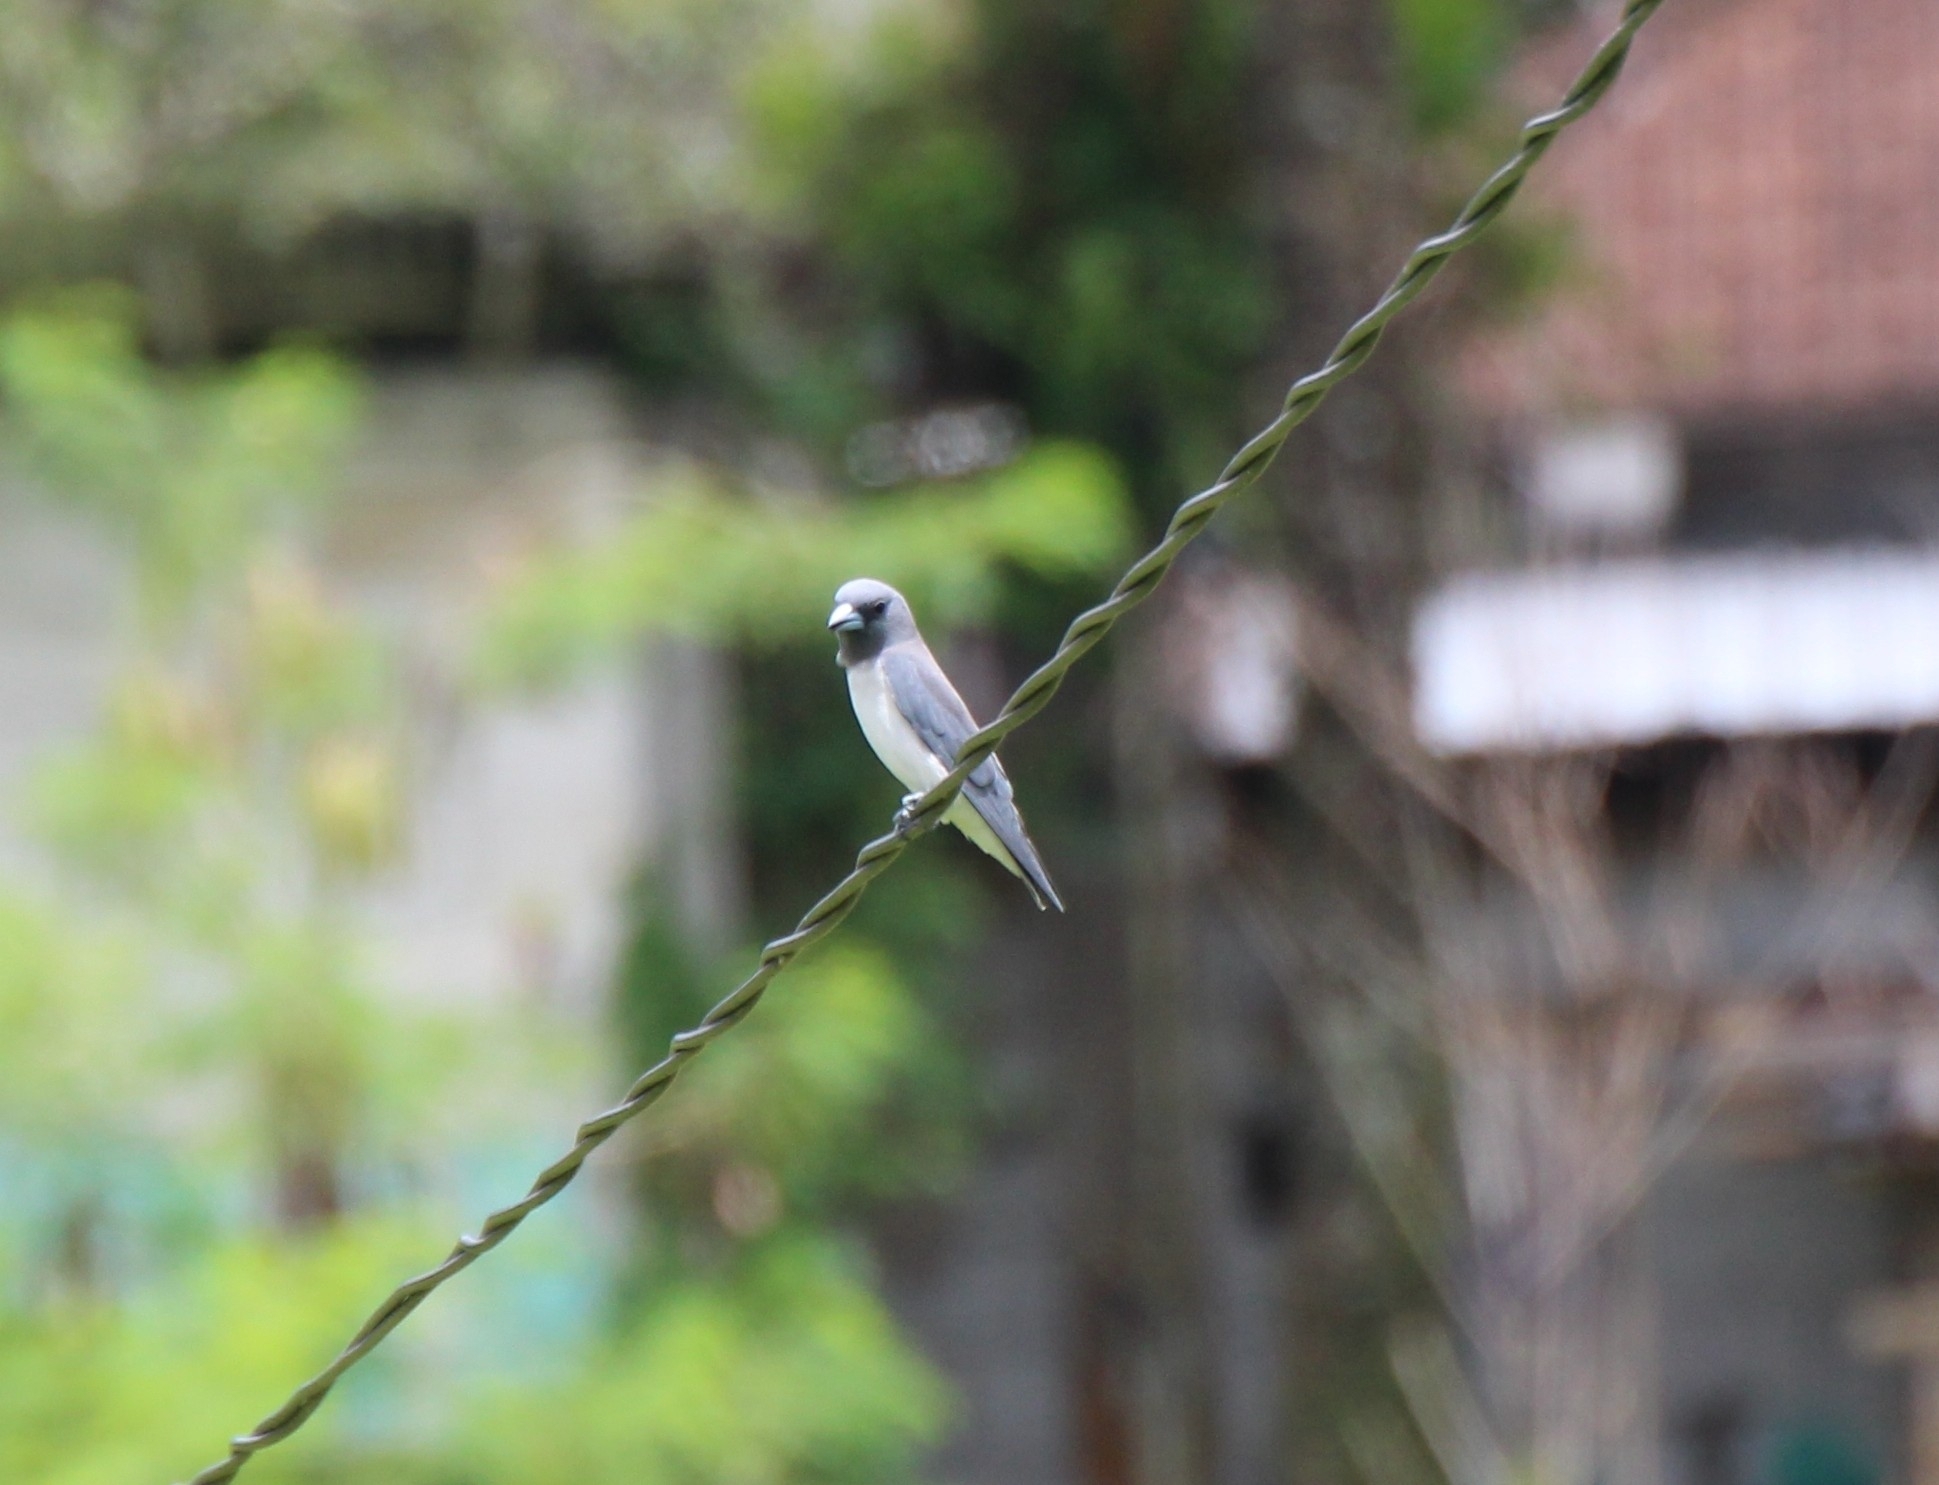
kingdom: Animalia
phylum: Chordata
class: Aves
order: Passeriformes
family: Artamidae
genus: Artamus
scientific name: Artamus leucoryn
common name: White-breasted woodswallow
